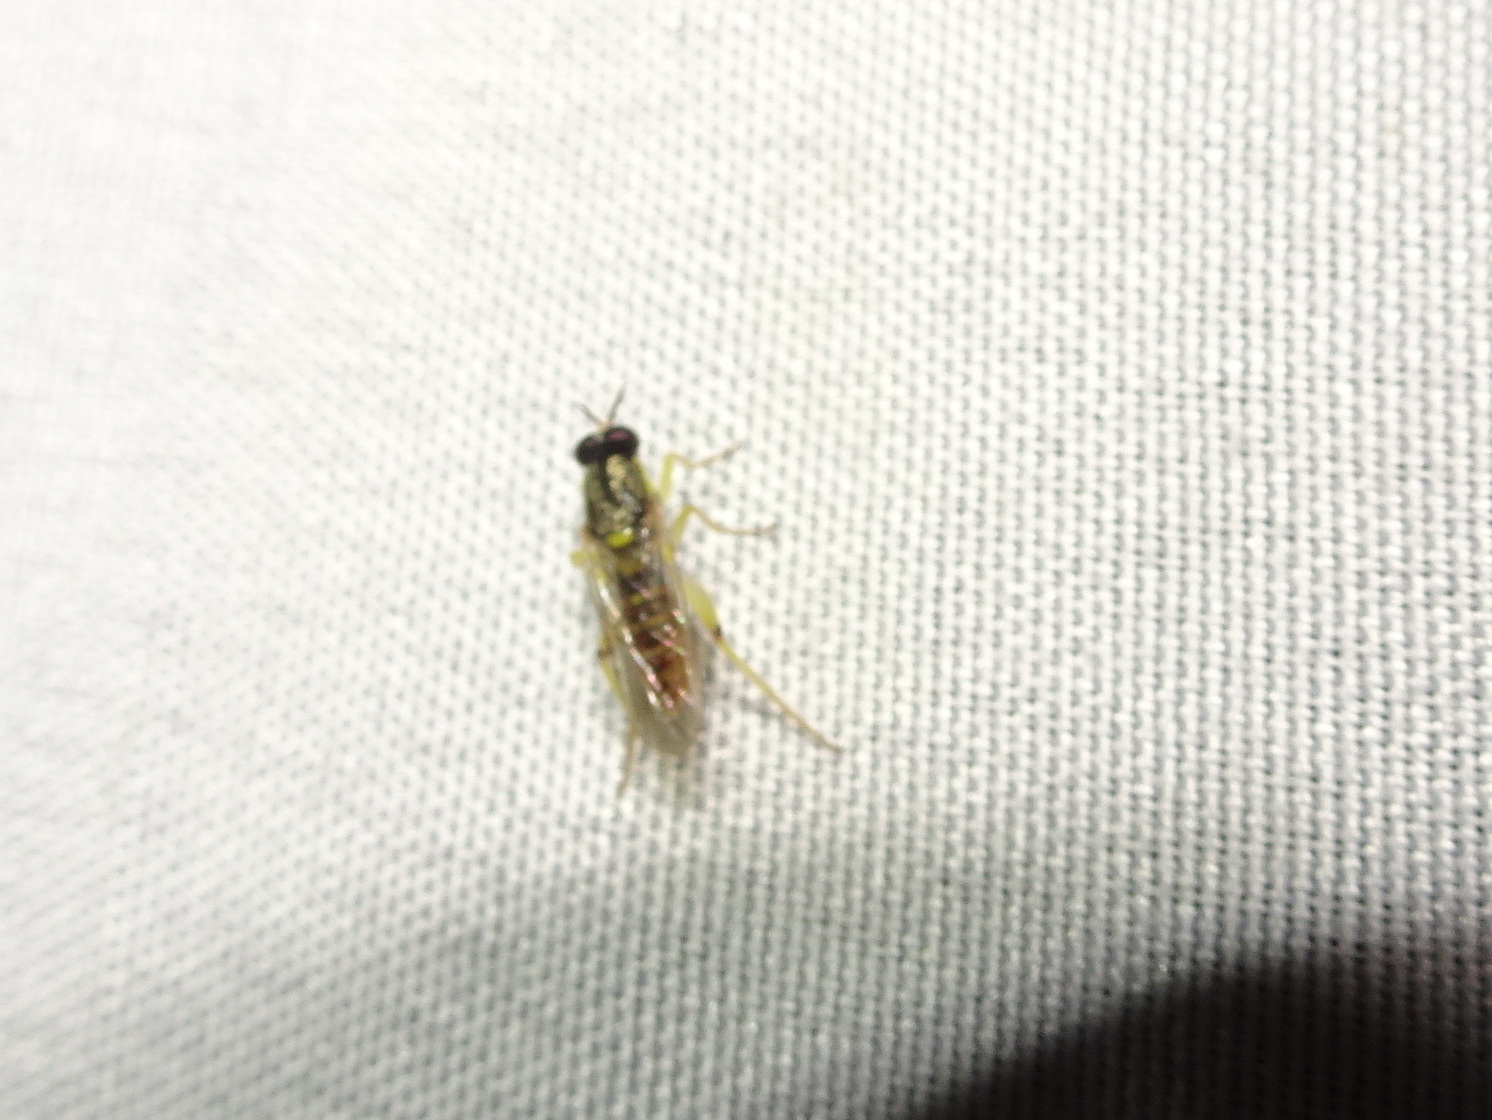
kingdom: Animalia
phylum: Arthropoda
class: Insecta
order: Diptera
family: Xylomyidae
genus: Solva
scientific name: Solva pallipes
